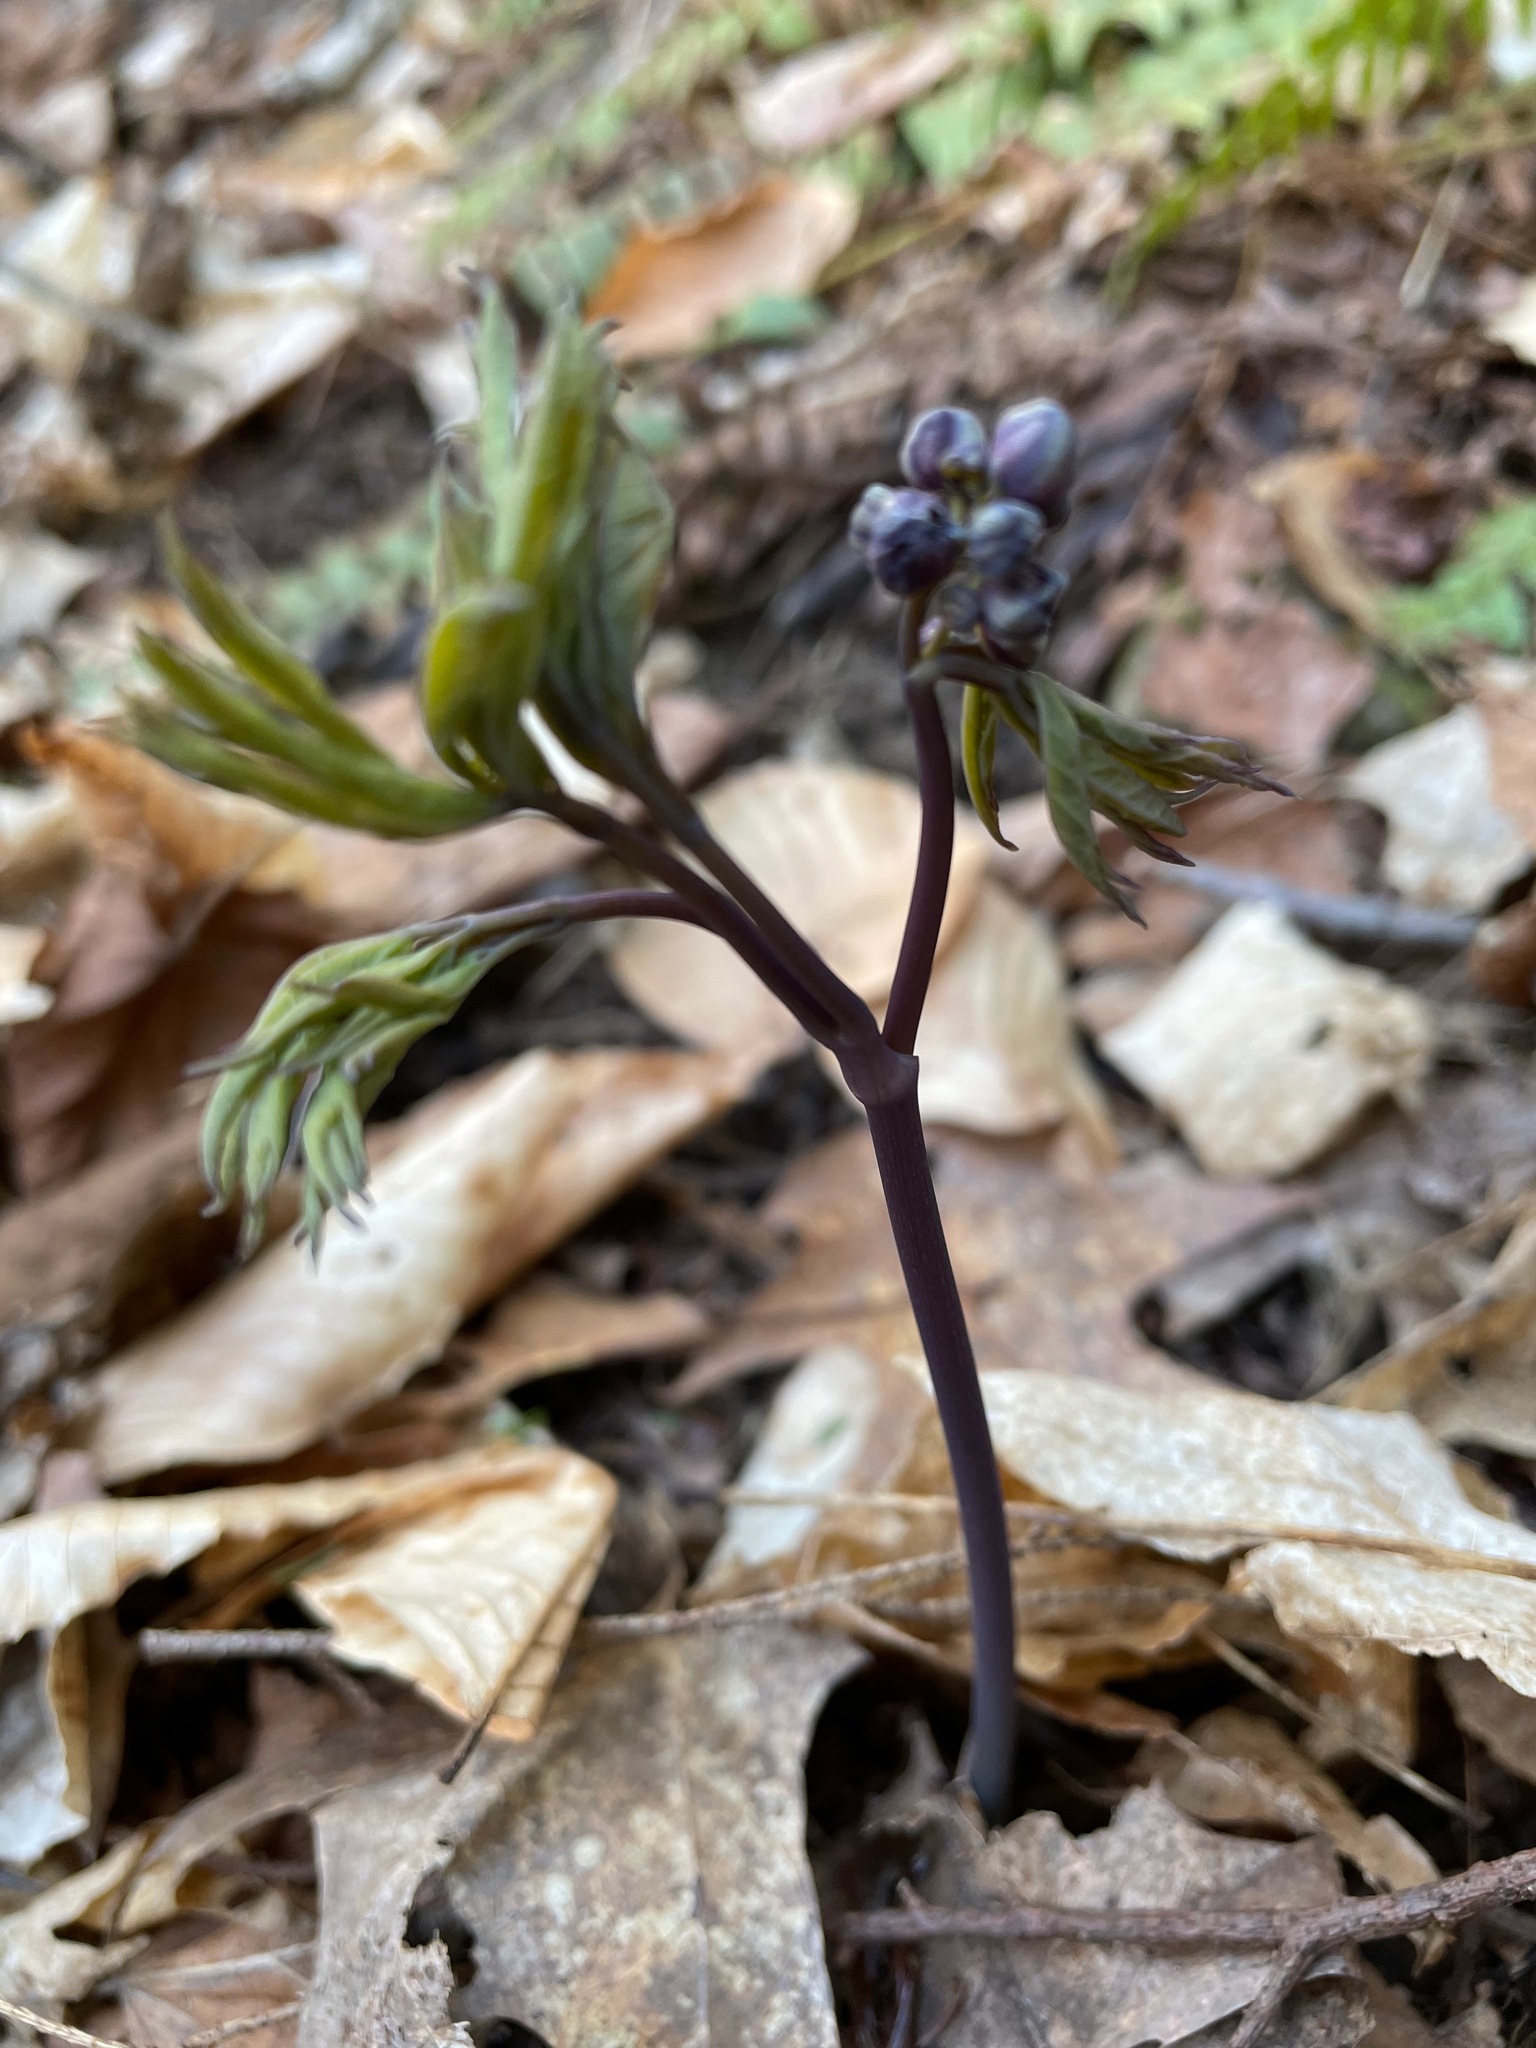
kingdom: Plantae
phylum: Tracheophyta
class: Magnoliopsida
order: Ranunculales
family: Berberidaceae
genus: Caulophyllum
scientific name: Caulophyllum giganteum
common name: Blue cohosh
